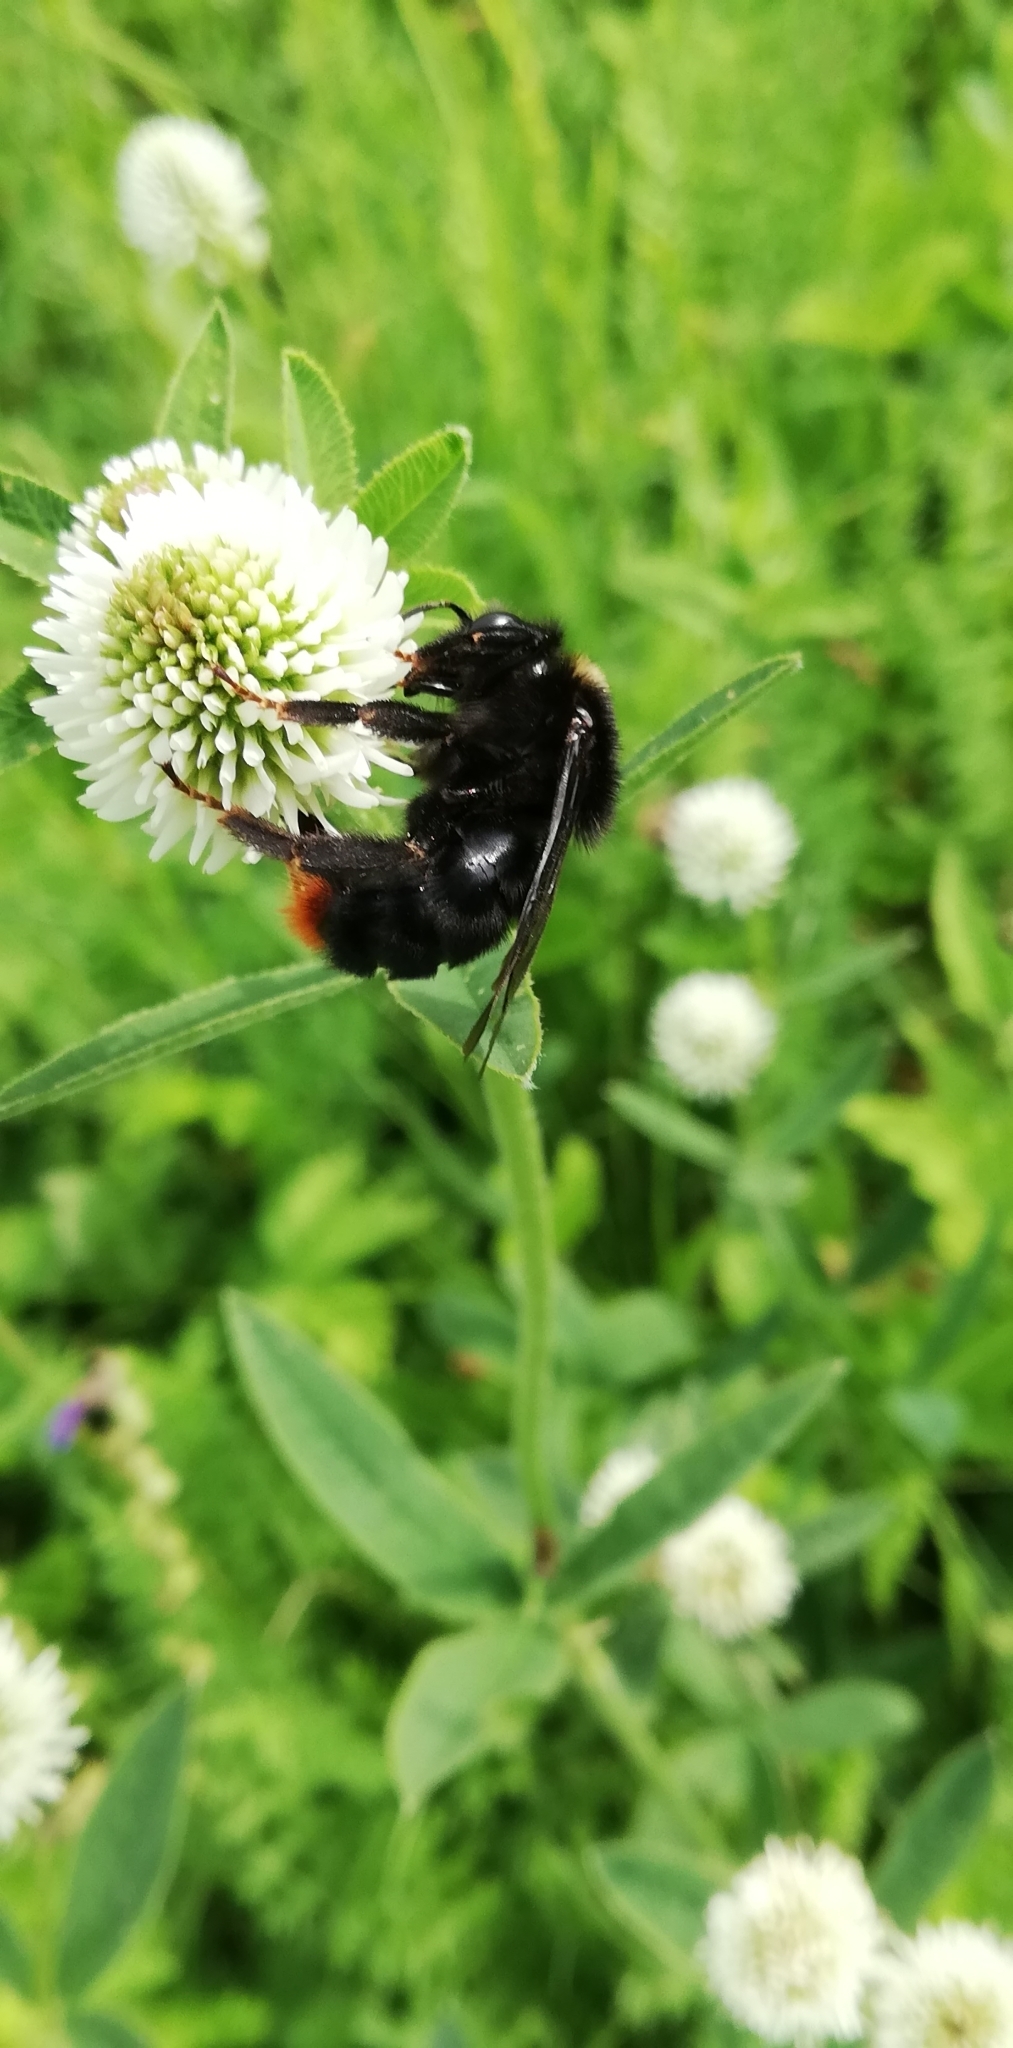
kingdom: Plantae
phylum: Tracheophyta
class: Magnoliopsida
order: Fabales
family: Fabaceae
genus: Trifolium
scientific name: Trifolium montanum
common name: Mountain clover
